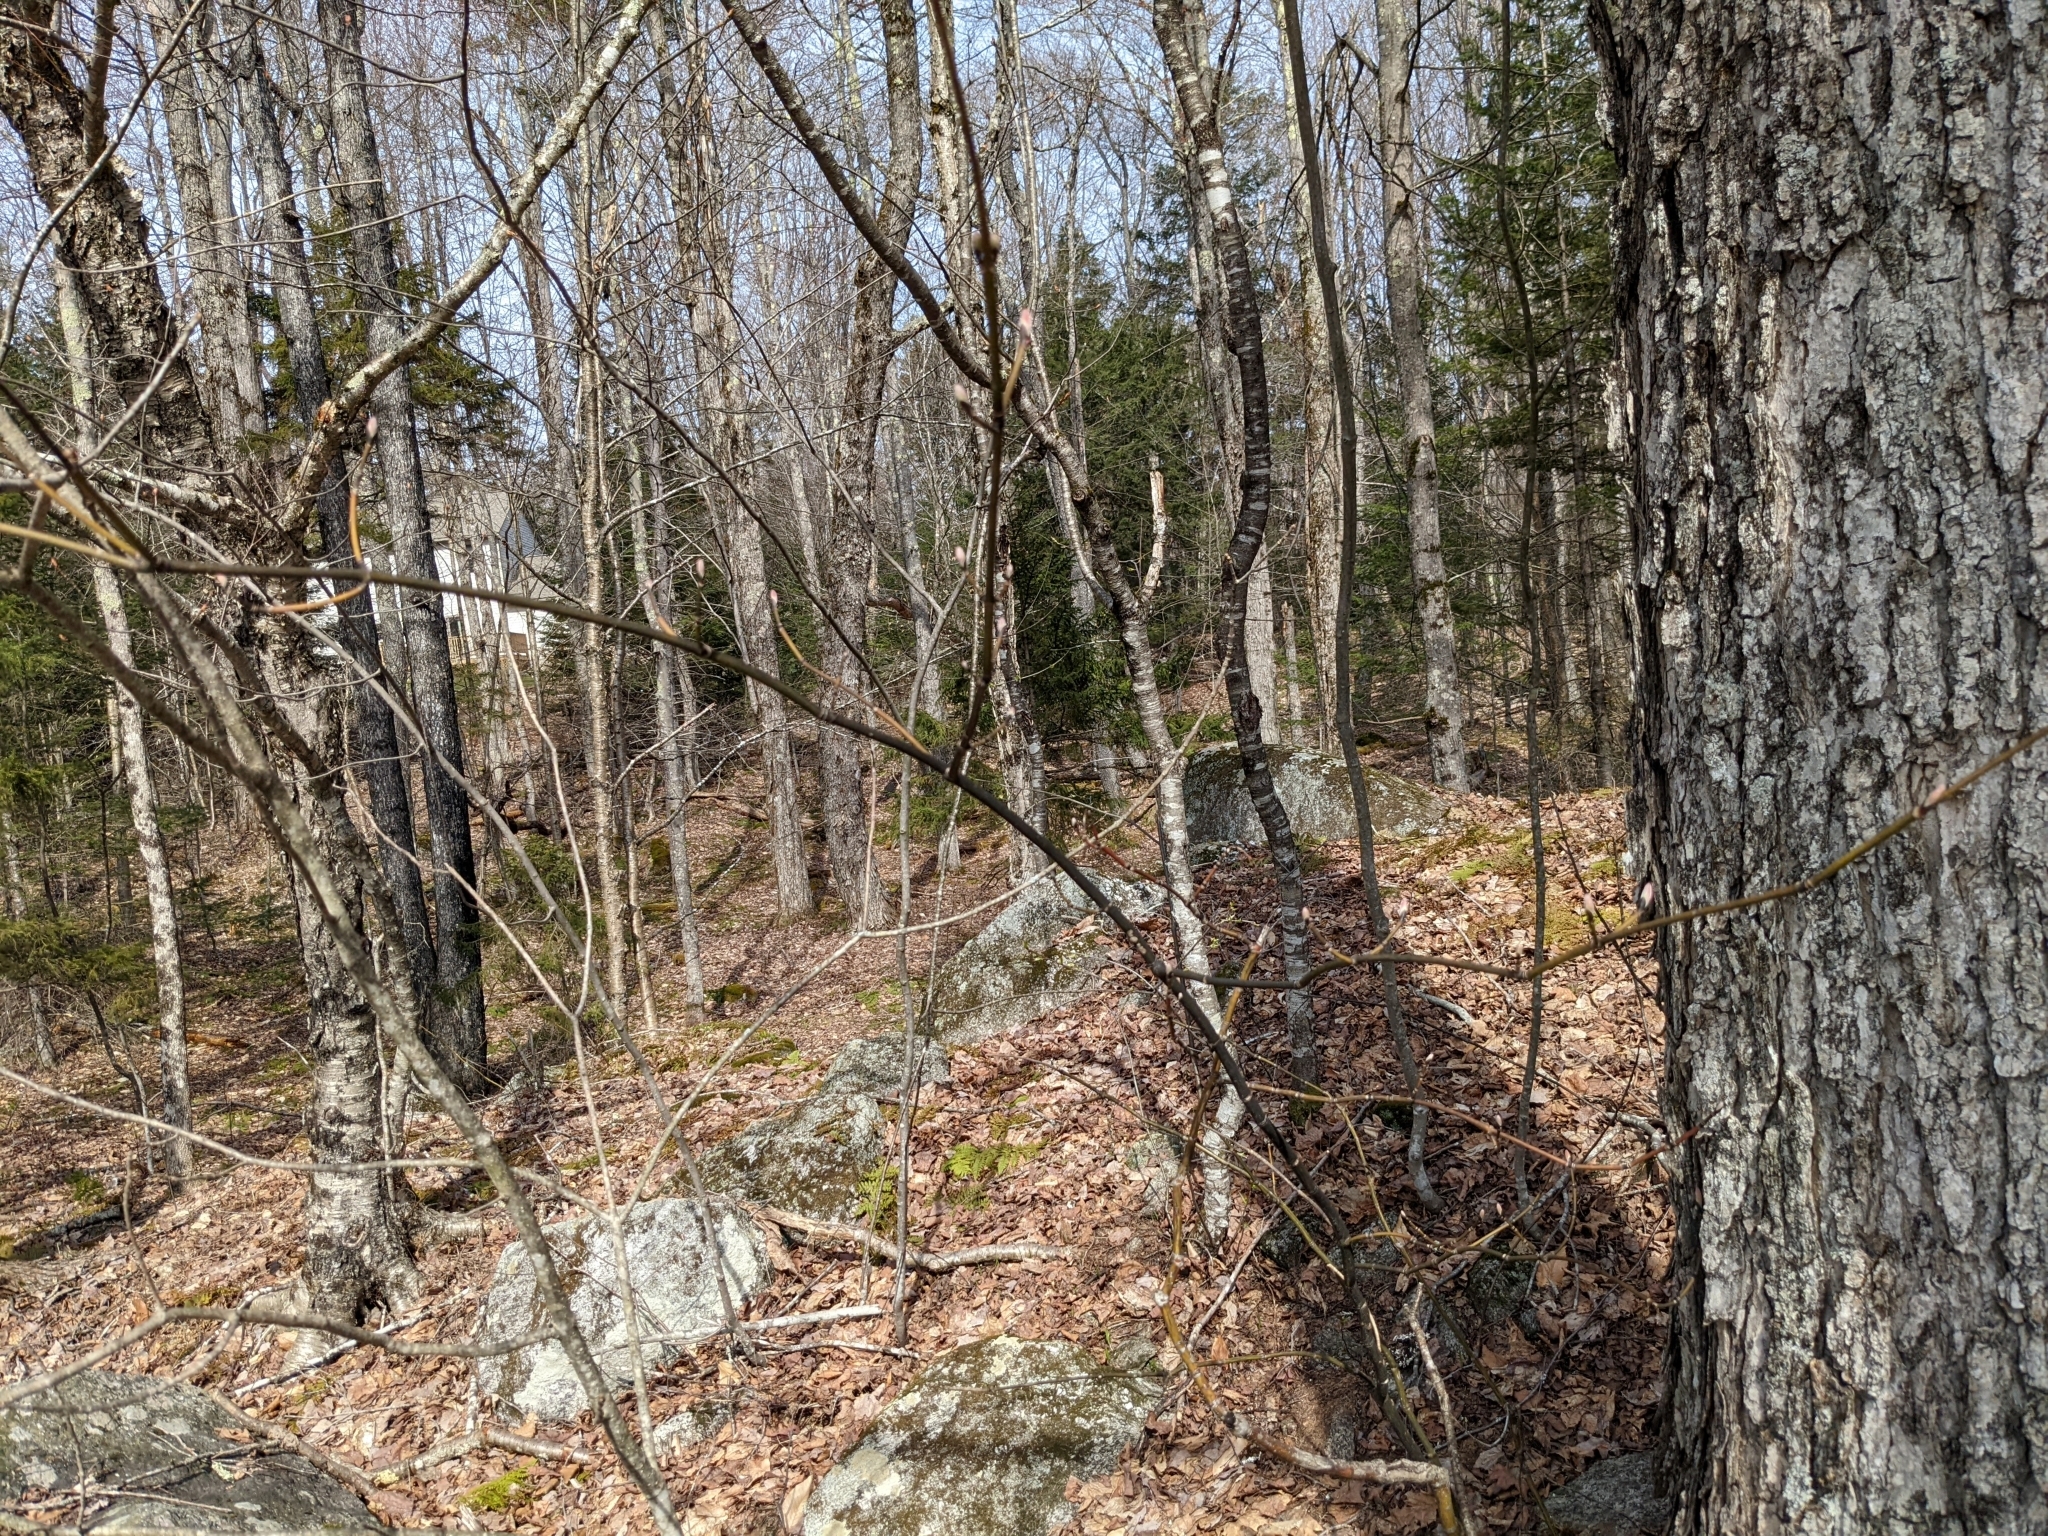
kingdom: Plantae
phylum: Tracheophyta
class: Magnoliopsida
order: Sapindales
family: Sapindaceae
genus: Acer
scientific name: Acer pensylvanicum
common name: Moosewood
